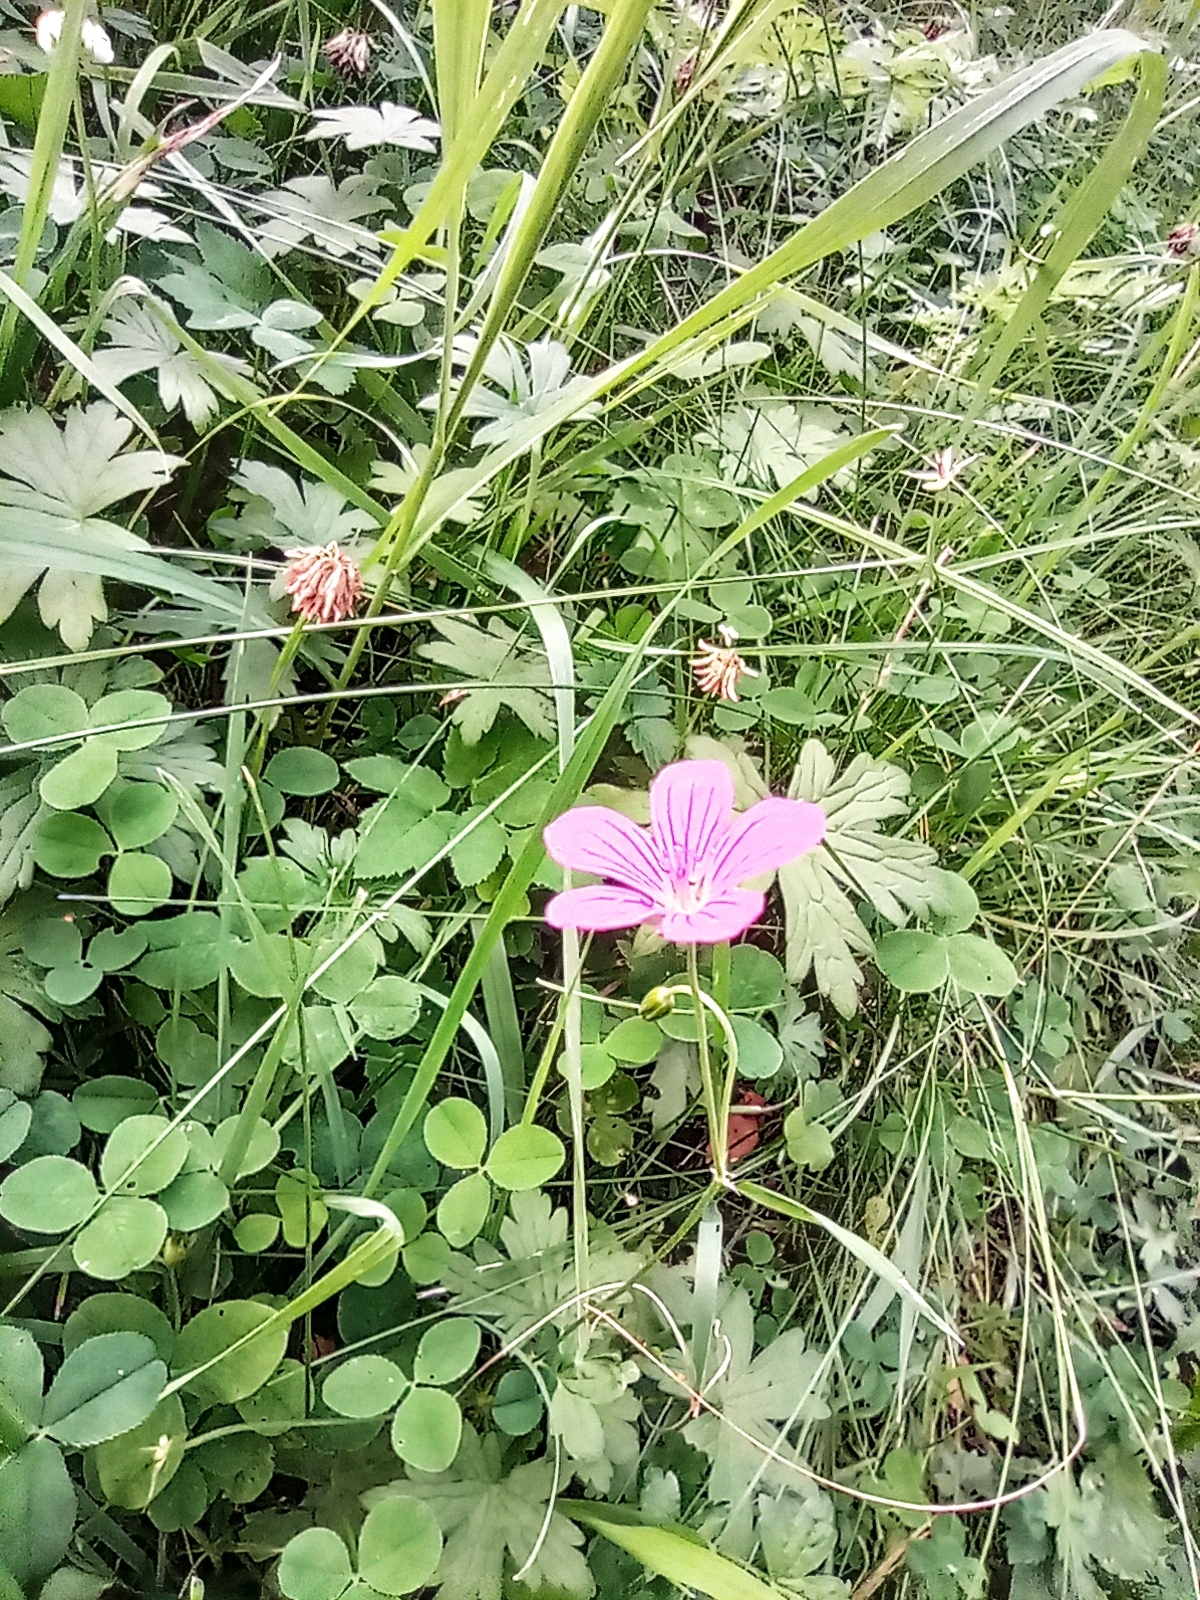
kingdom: Plantae
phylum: Tracheophyta
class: Magnoliopsida
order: Geraniales
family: Geraniaceae
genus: Geranium
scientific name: Geranium palustre
